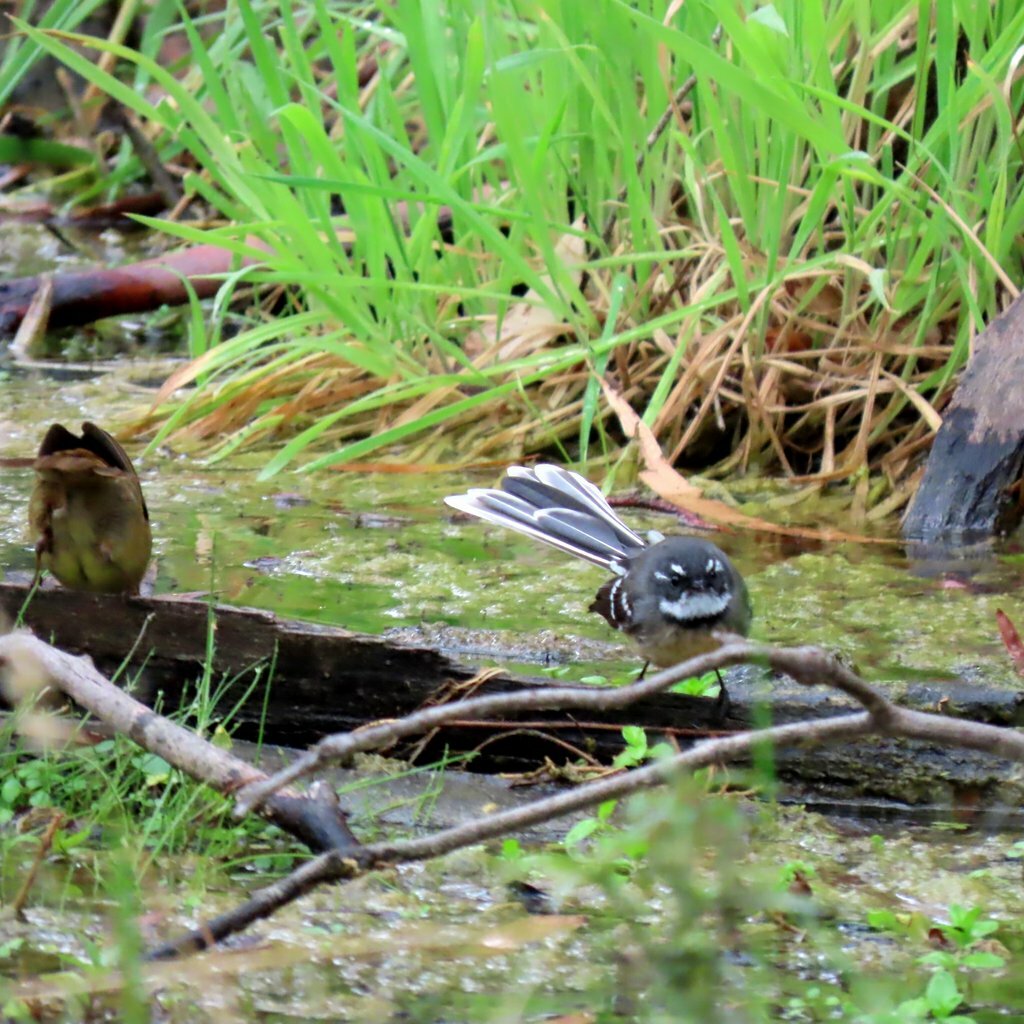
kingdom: Animalia
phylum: Chordata
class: Aves
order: Passeriformes
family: Rhipiduridae
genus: Rhipidura
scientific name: Rhipidura albiscapa
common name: Grey fantail
